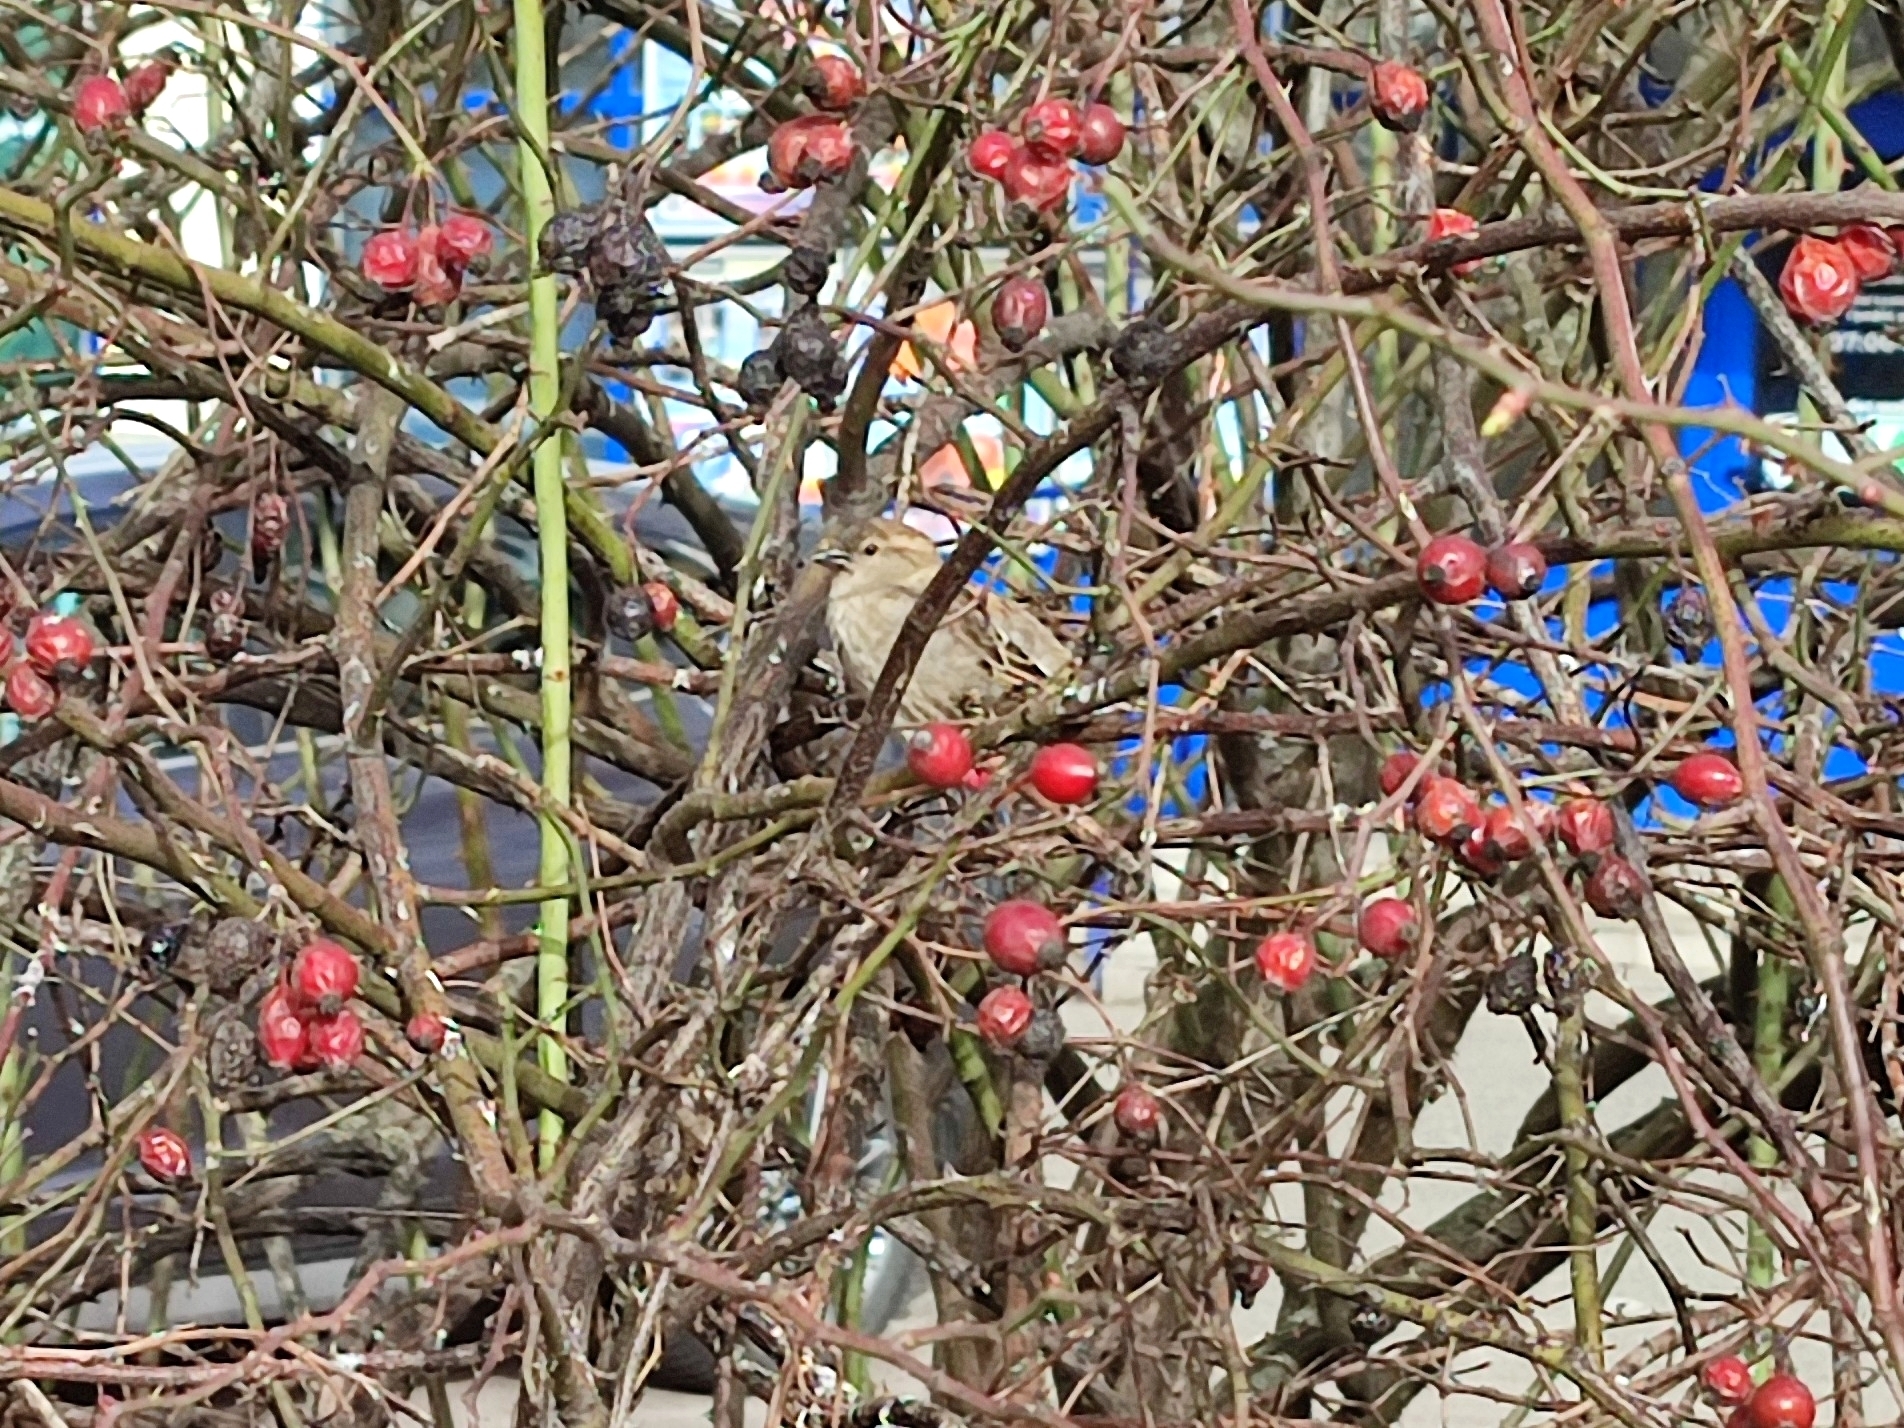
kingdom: Animalia
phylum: Chordata
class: Aves
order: Passeriformes
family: Passeridae
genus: Passer
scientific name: Passer domesticus
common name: House sparrow
